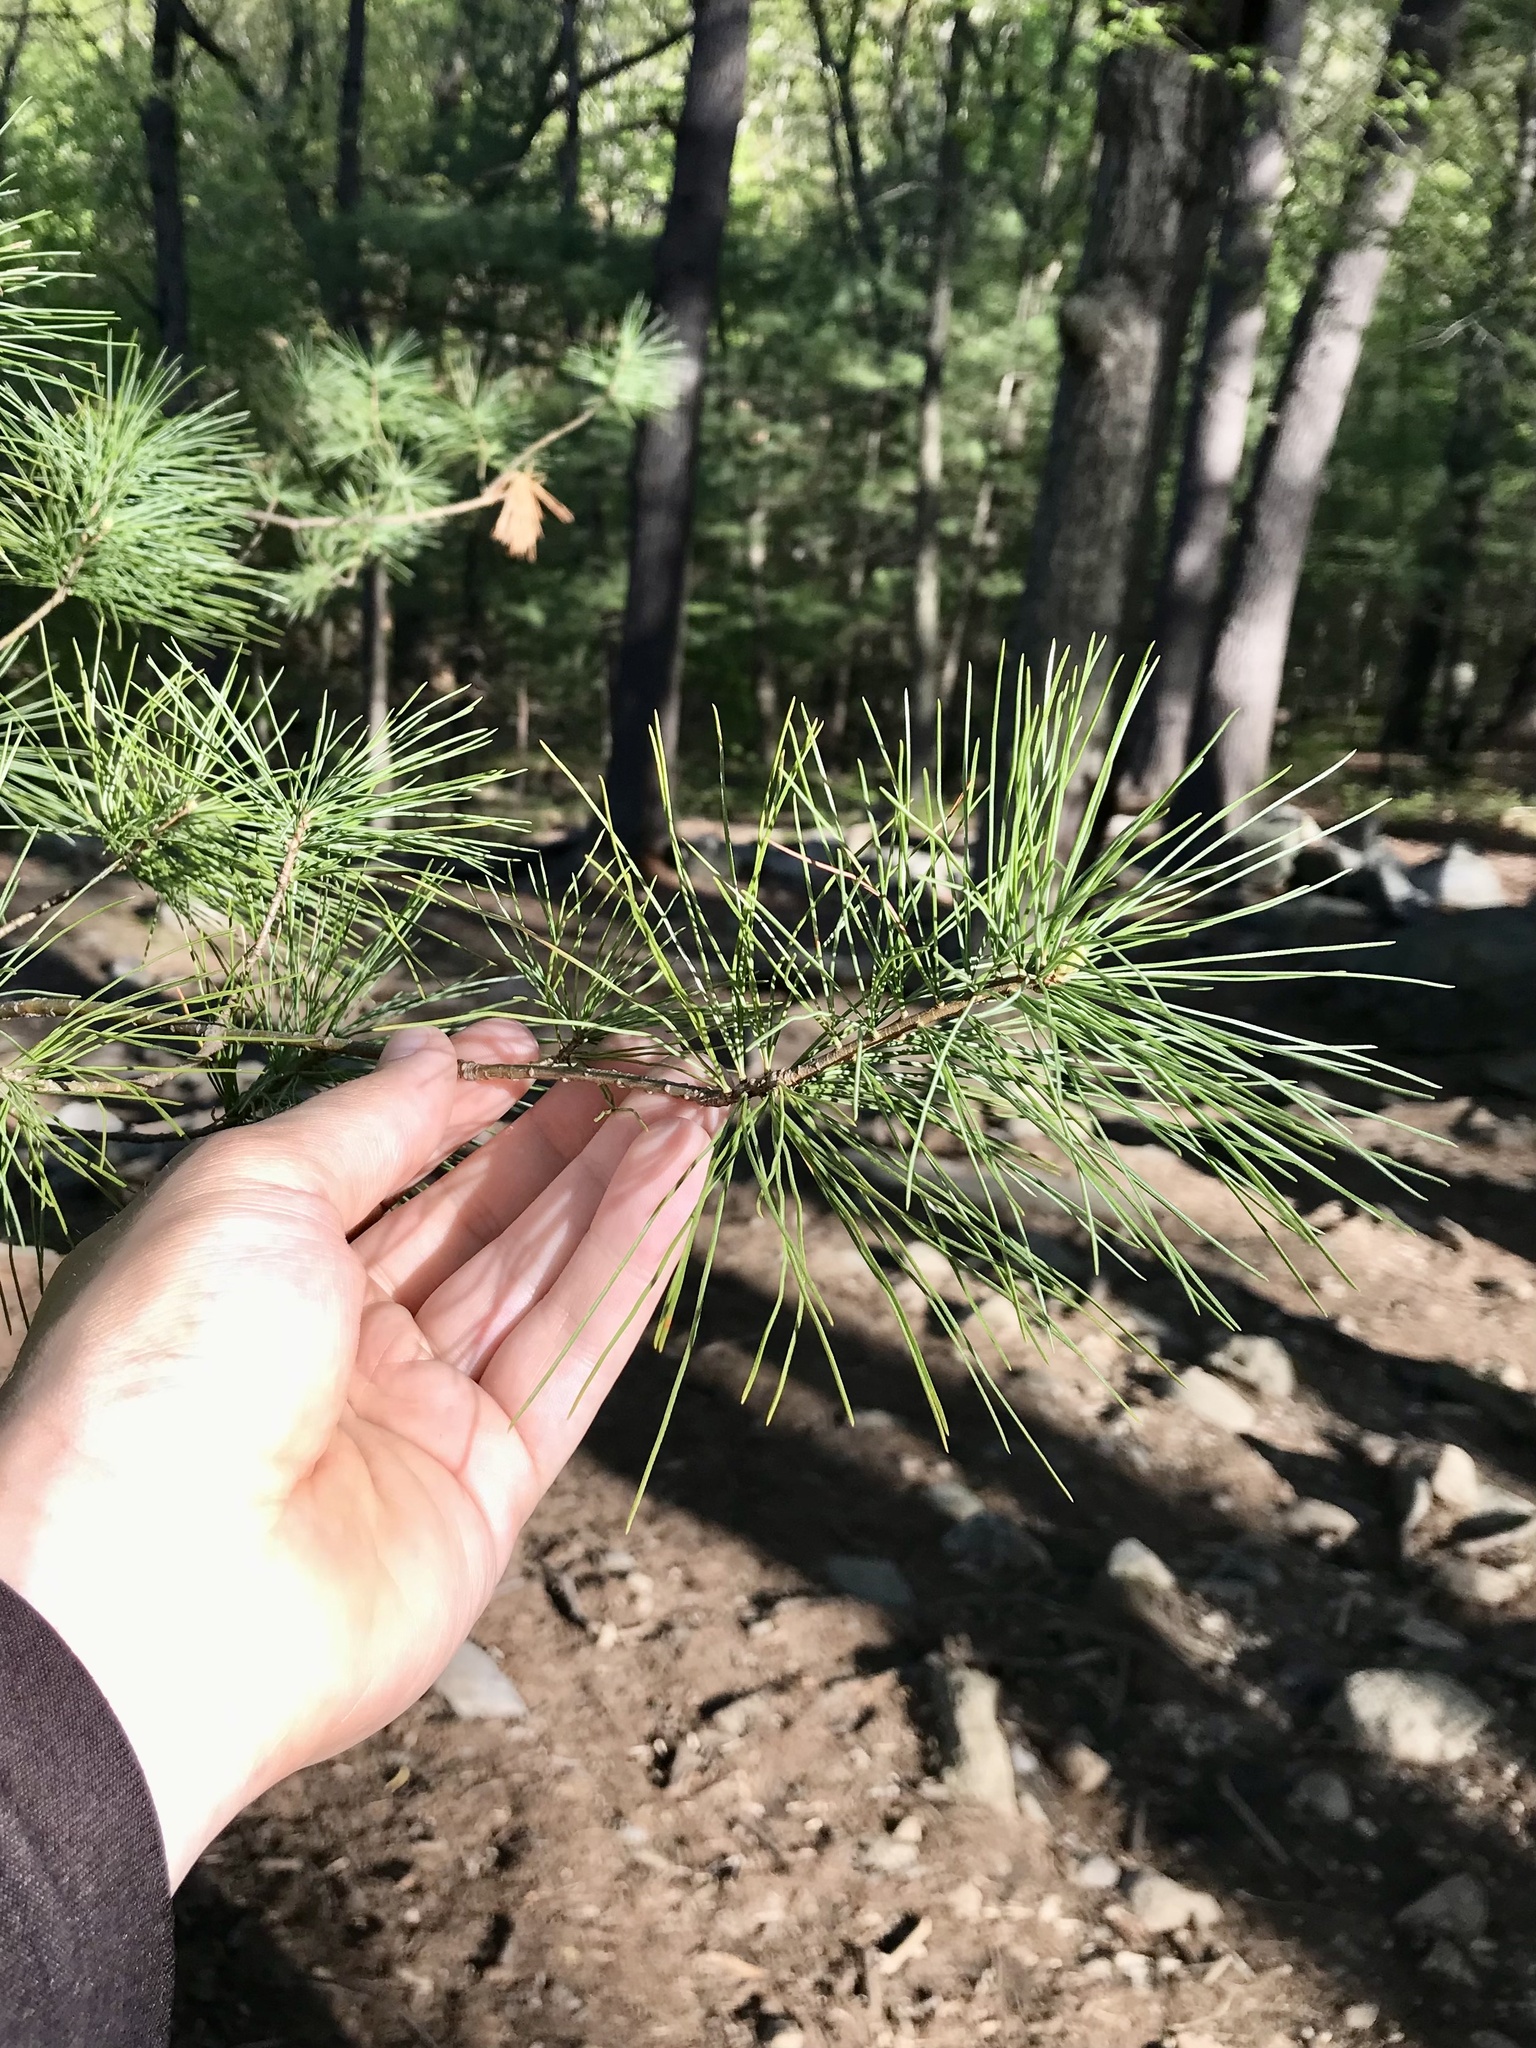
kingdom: Plantae
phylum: Tracheophyta
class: Pinopsida
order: Pinales
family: Pinaceae
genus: Pinus
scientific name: Pinus strobus
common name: Weymouth pine
